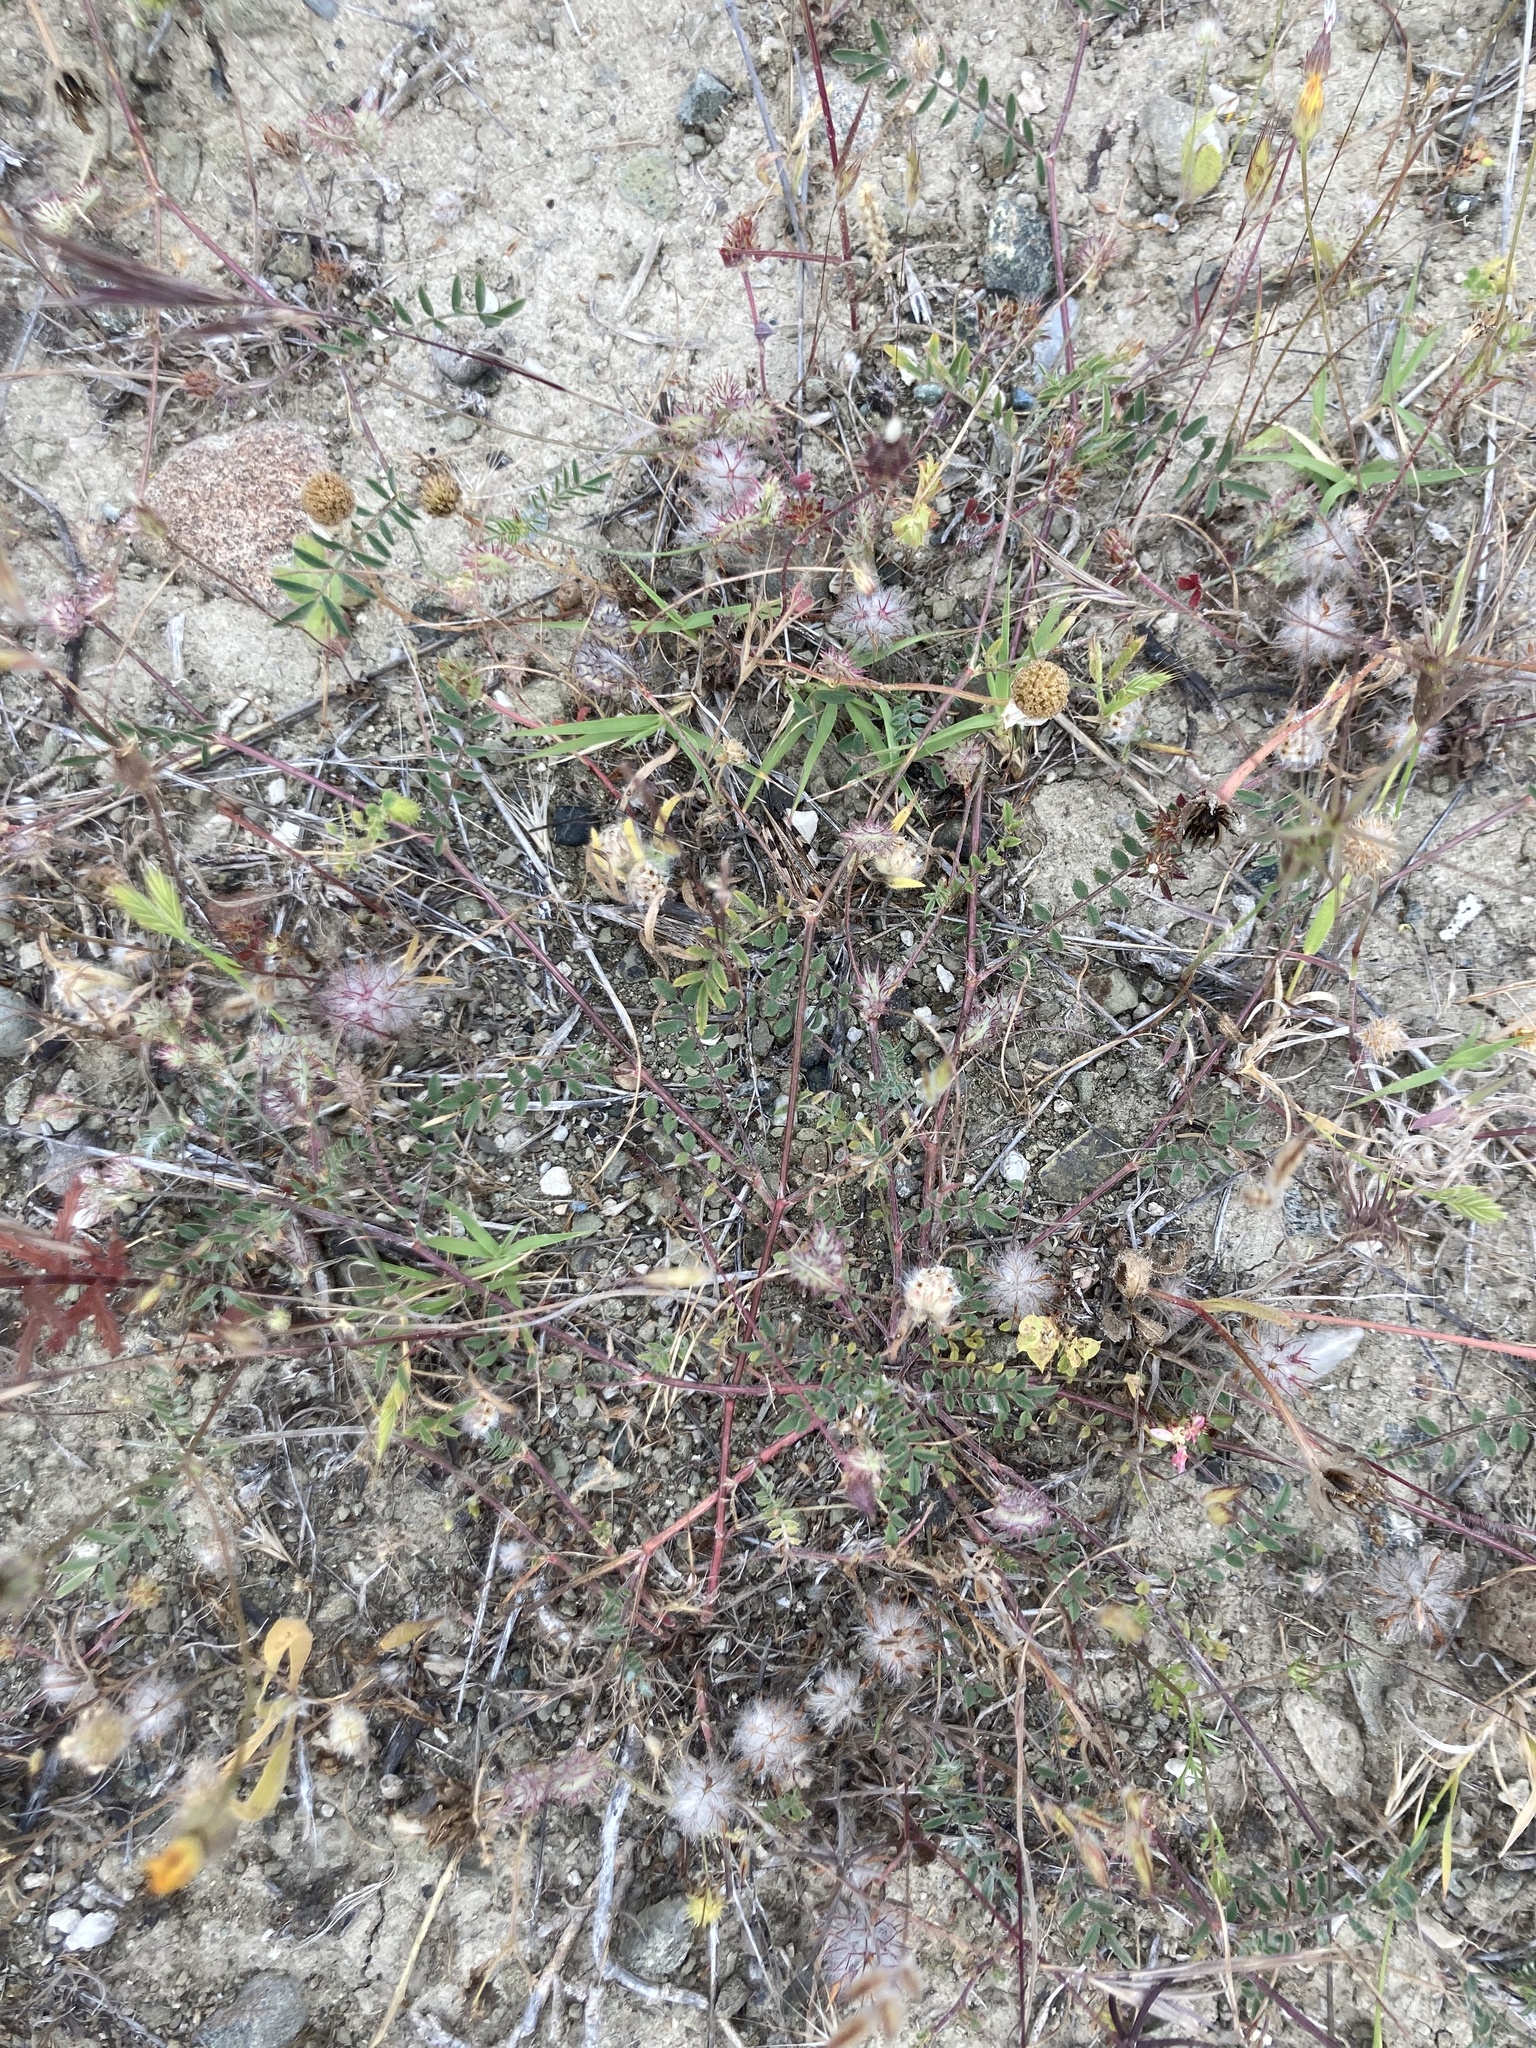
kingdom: Plantae
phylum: Tracheophyta
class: Magnoliopsida
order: Fabales
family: Fabaceae
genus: Trifolium
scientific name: Trifolium stellatum
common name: Starry clover
